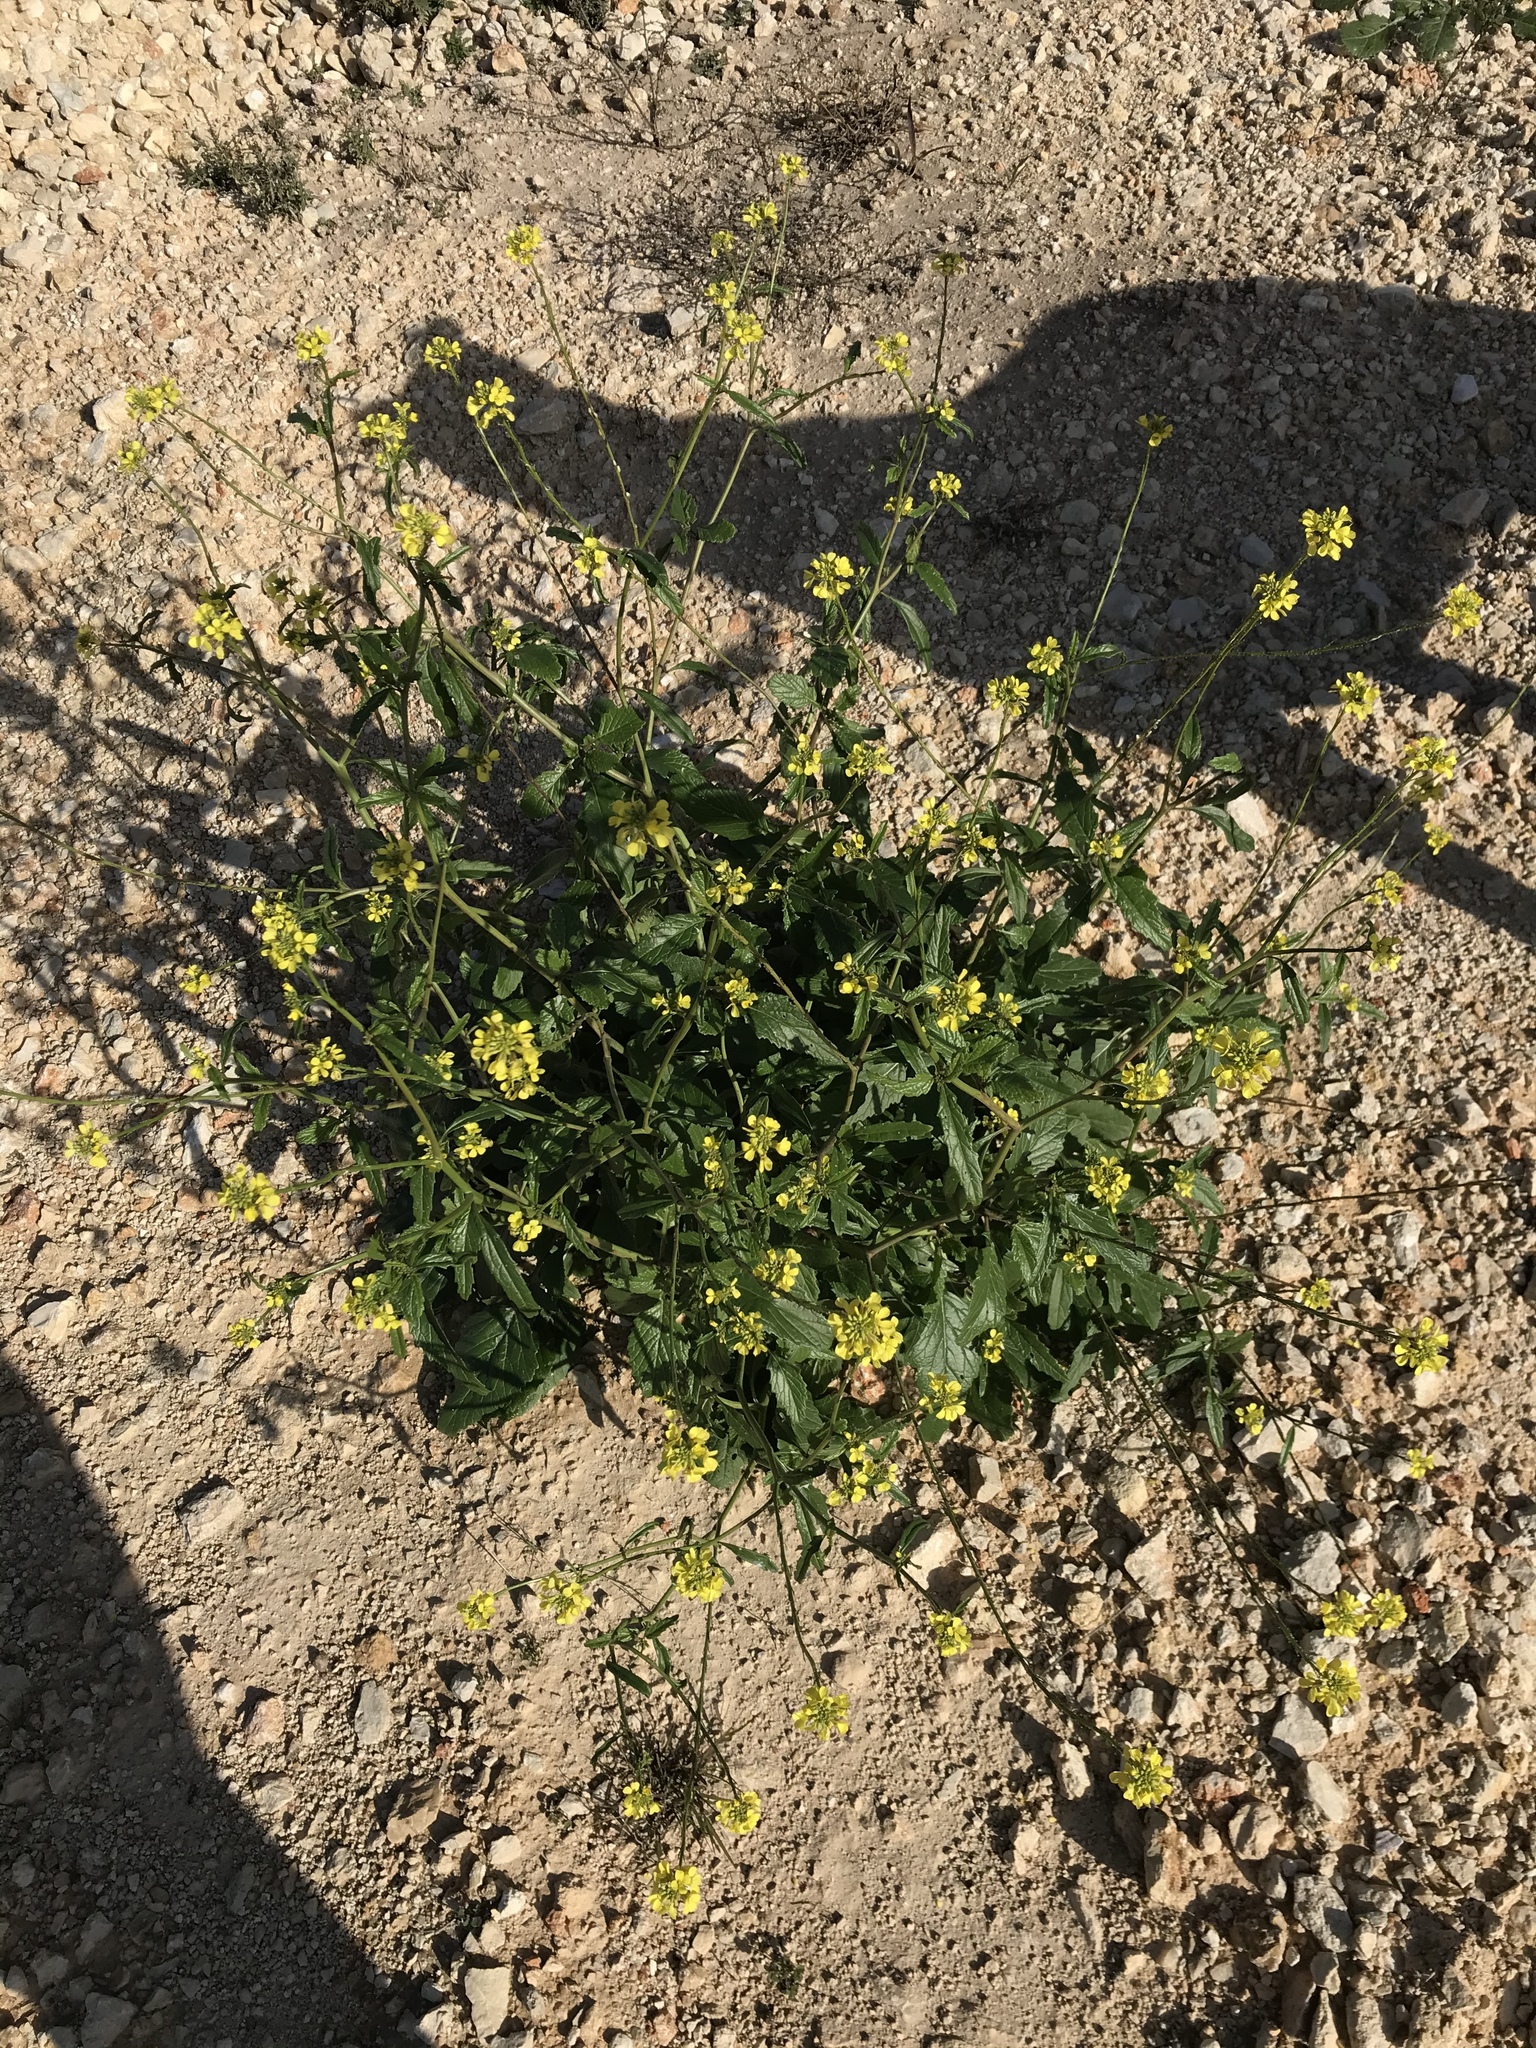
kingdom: Plantae
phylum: Tracheophyta
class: Magnoliopsida
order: Brassicales
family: Brassicaceae
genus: Rapistrum
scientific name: Rapistrum rugosum
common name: Annual bastardcabbage
